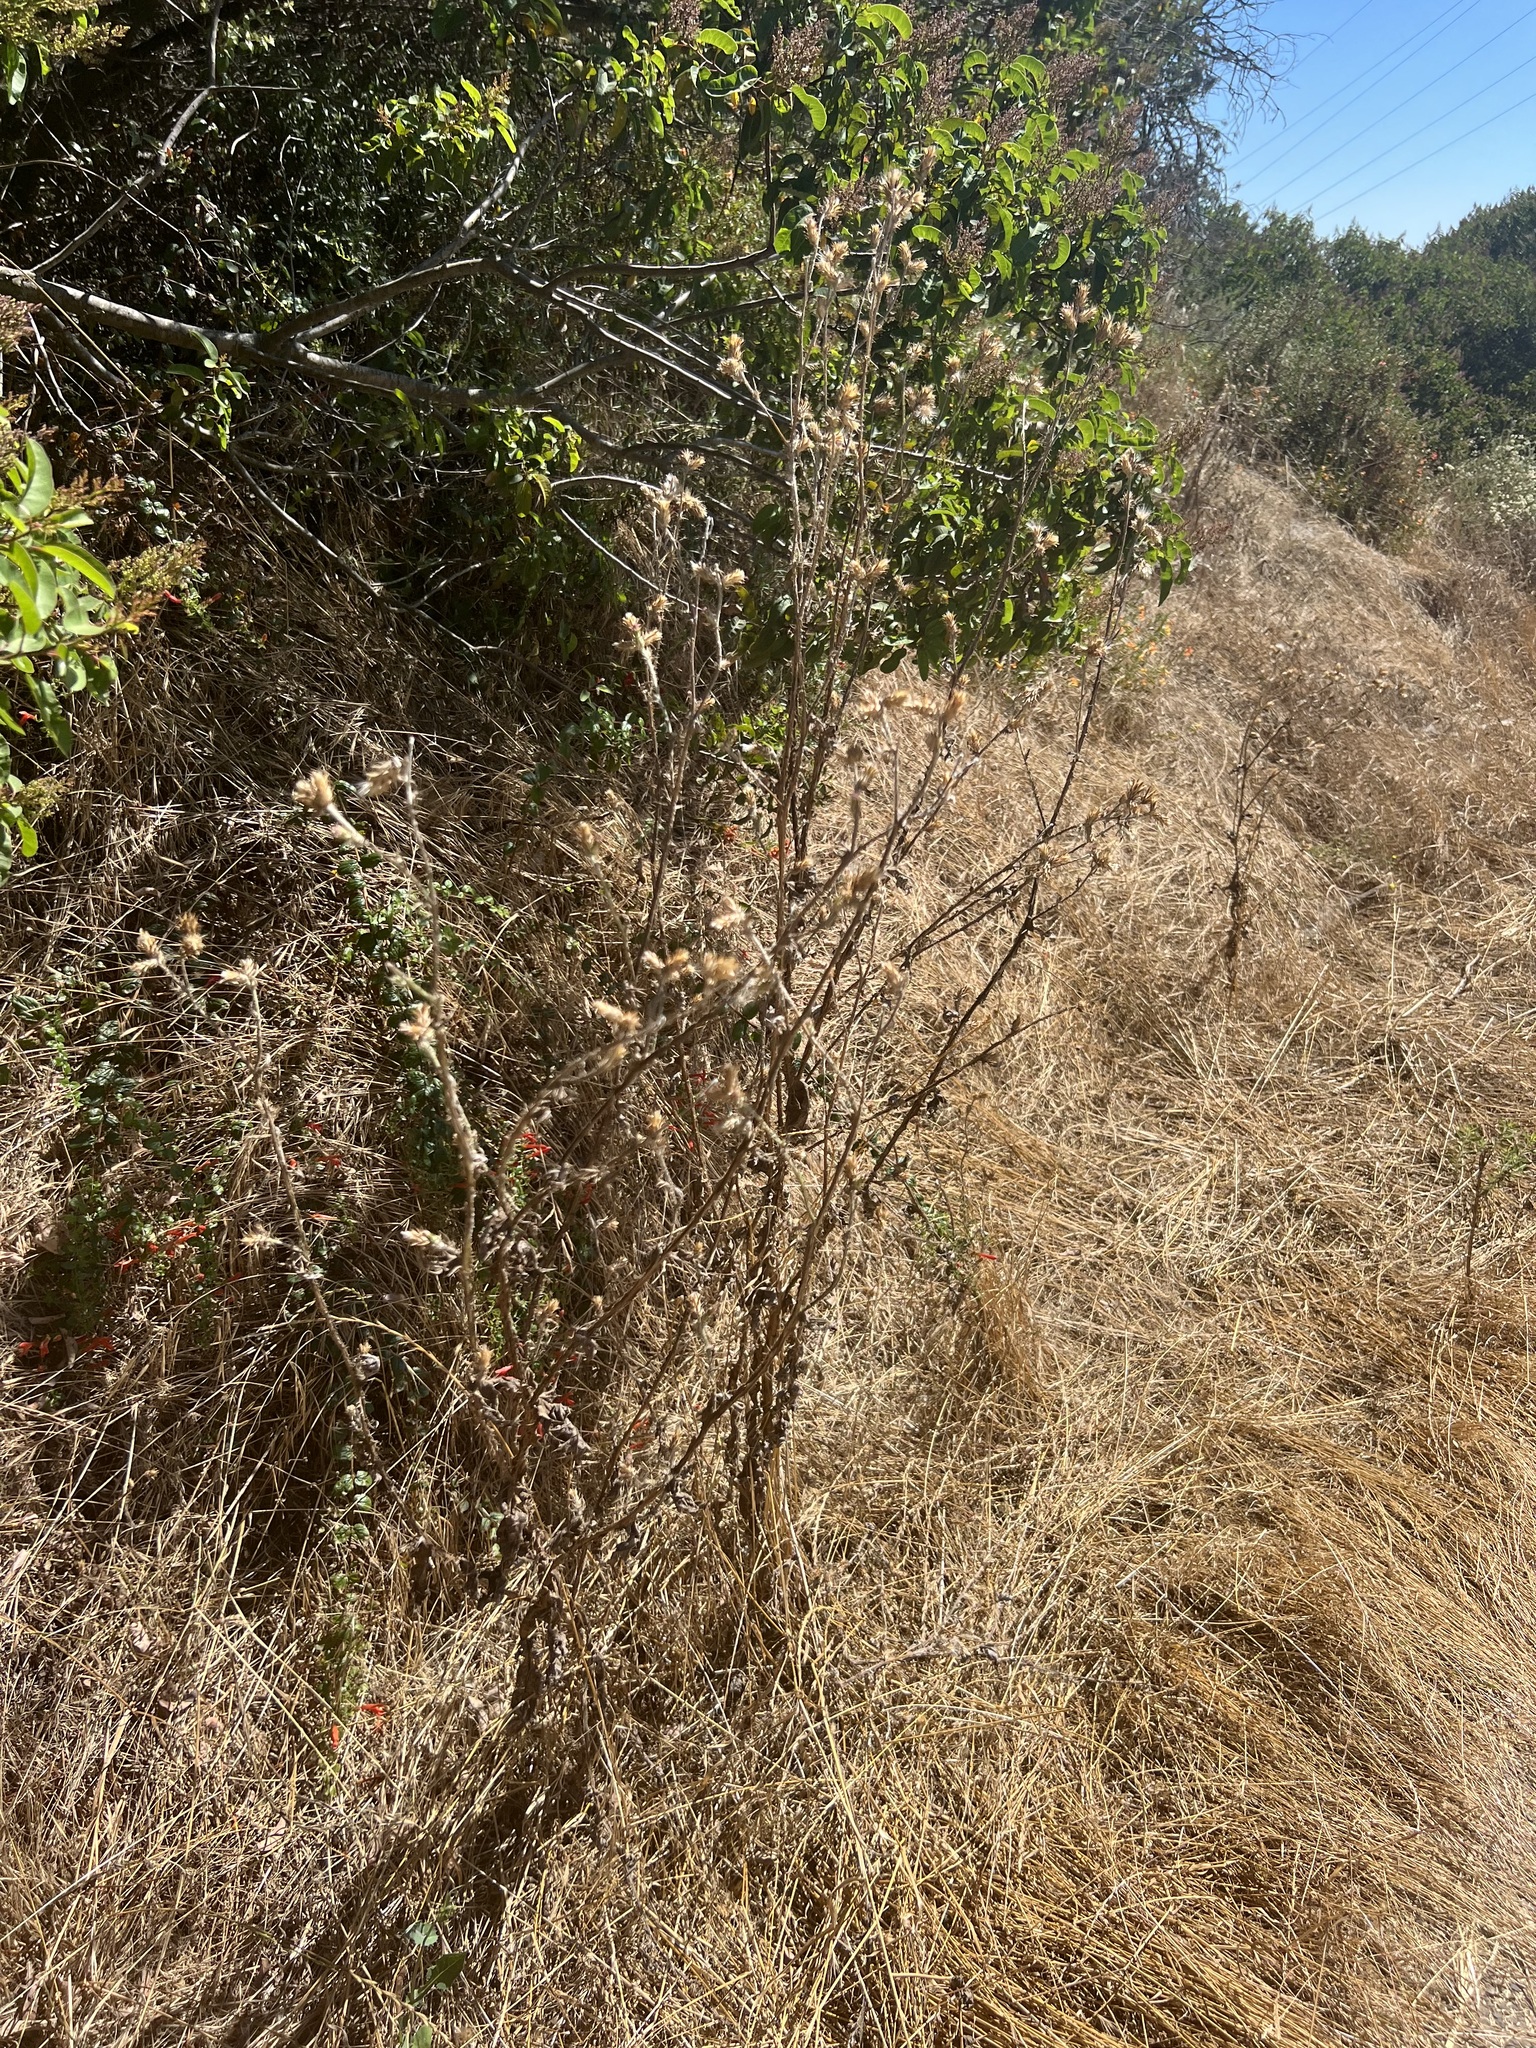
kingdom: Plantae
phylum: Tracheophyta
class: Magnoliopsida
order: Asterales
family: Asteraceae
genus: Carduus
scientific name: Carduus pycnocephalus
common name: Plymouth thistle
